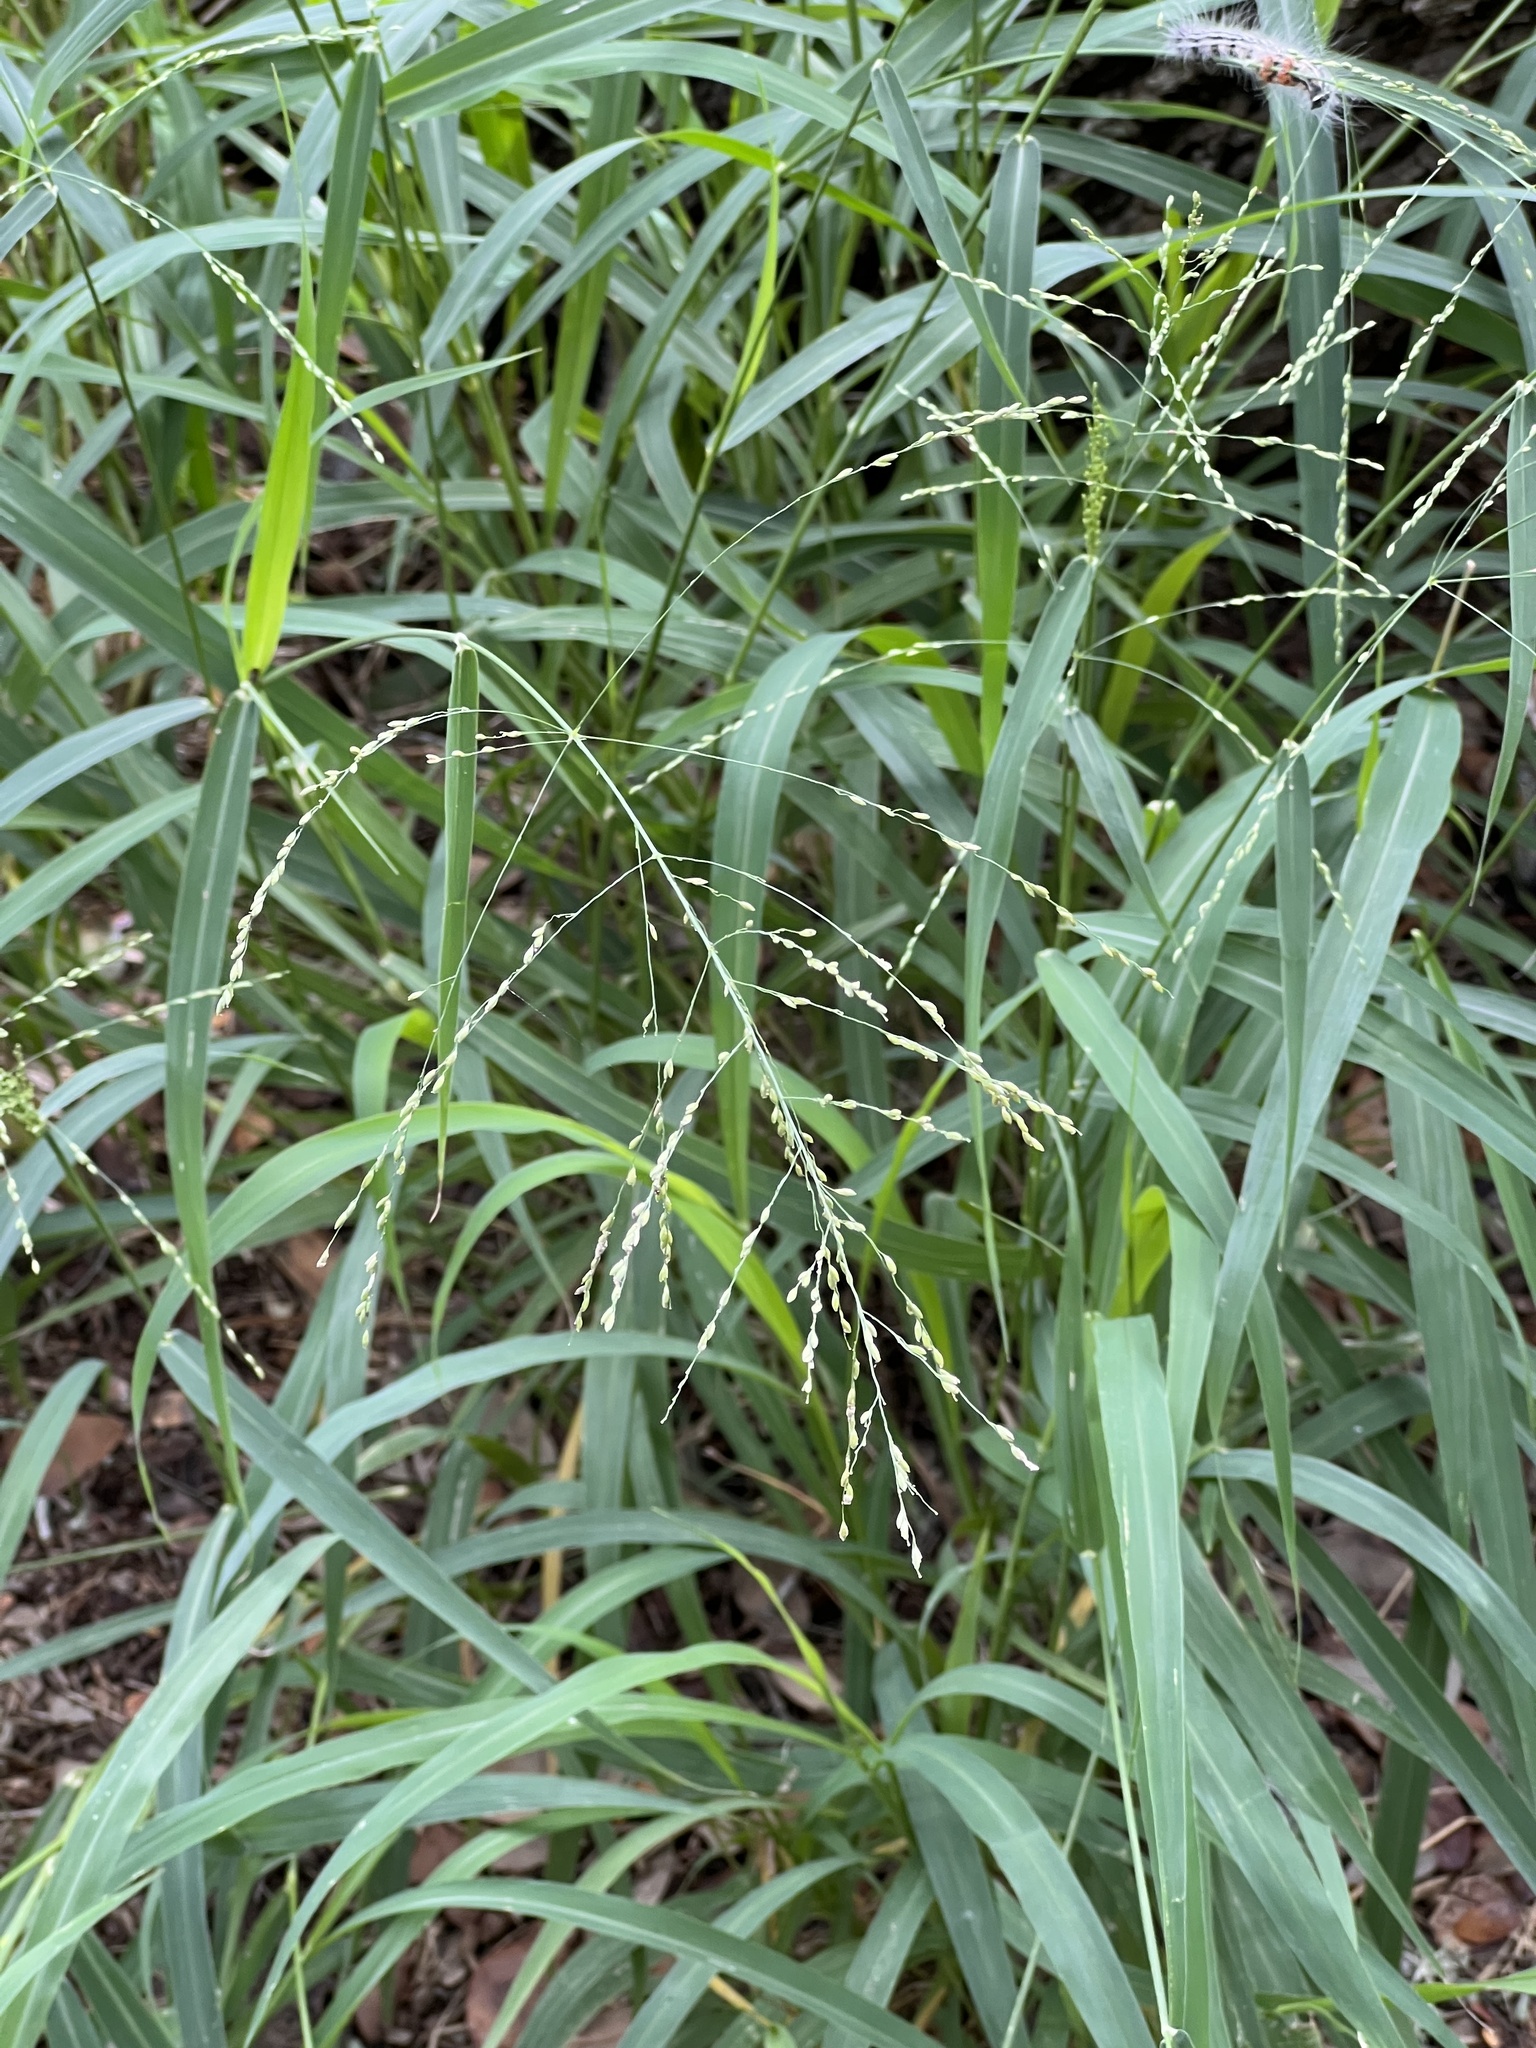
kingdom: Plantae
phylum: Tracheophyta
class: Liliopsida
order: Poales
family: Poaceae
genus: Megathyrsus
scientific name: Megathyrsus maximus
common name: Guineagrass
